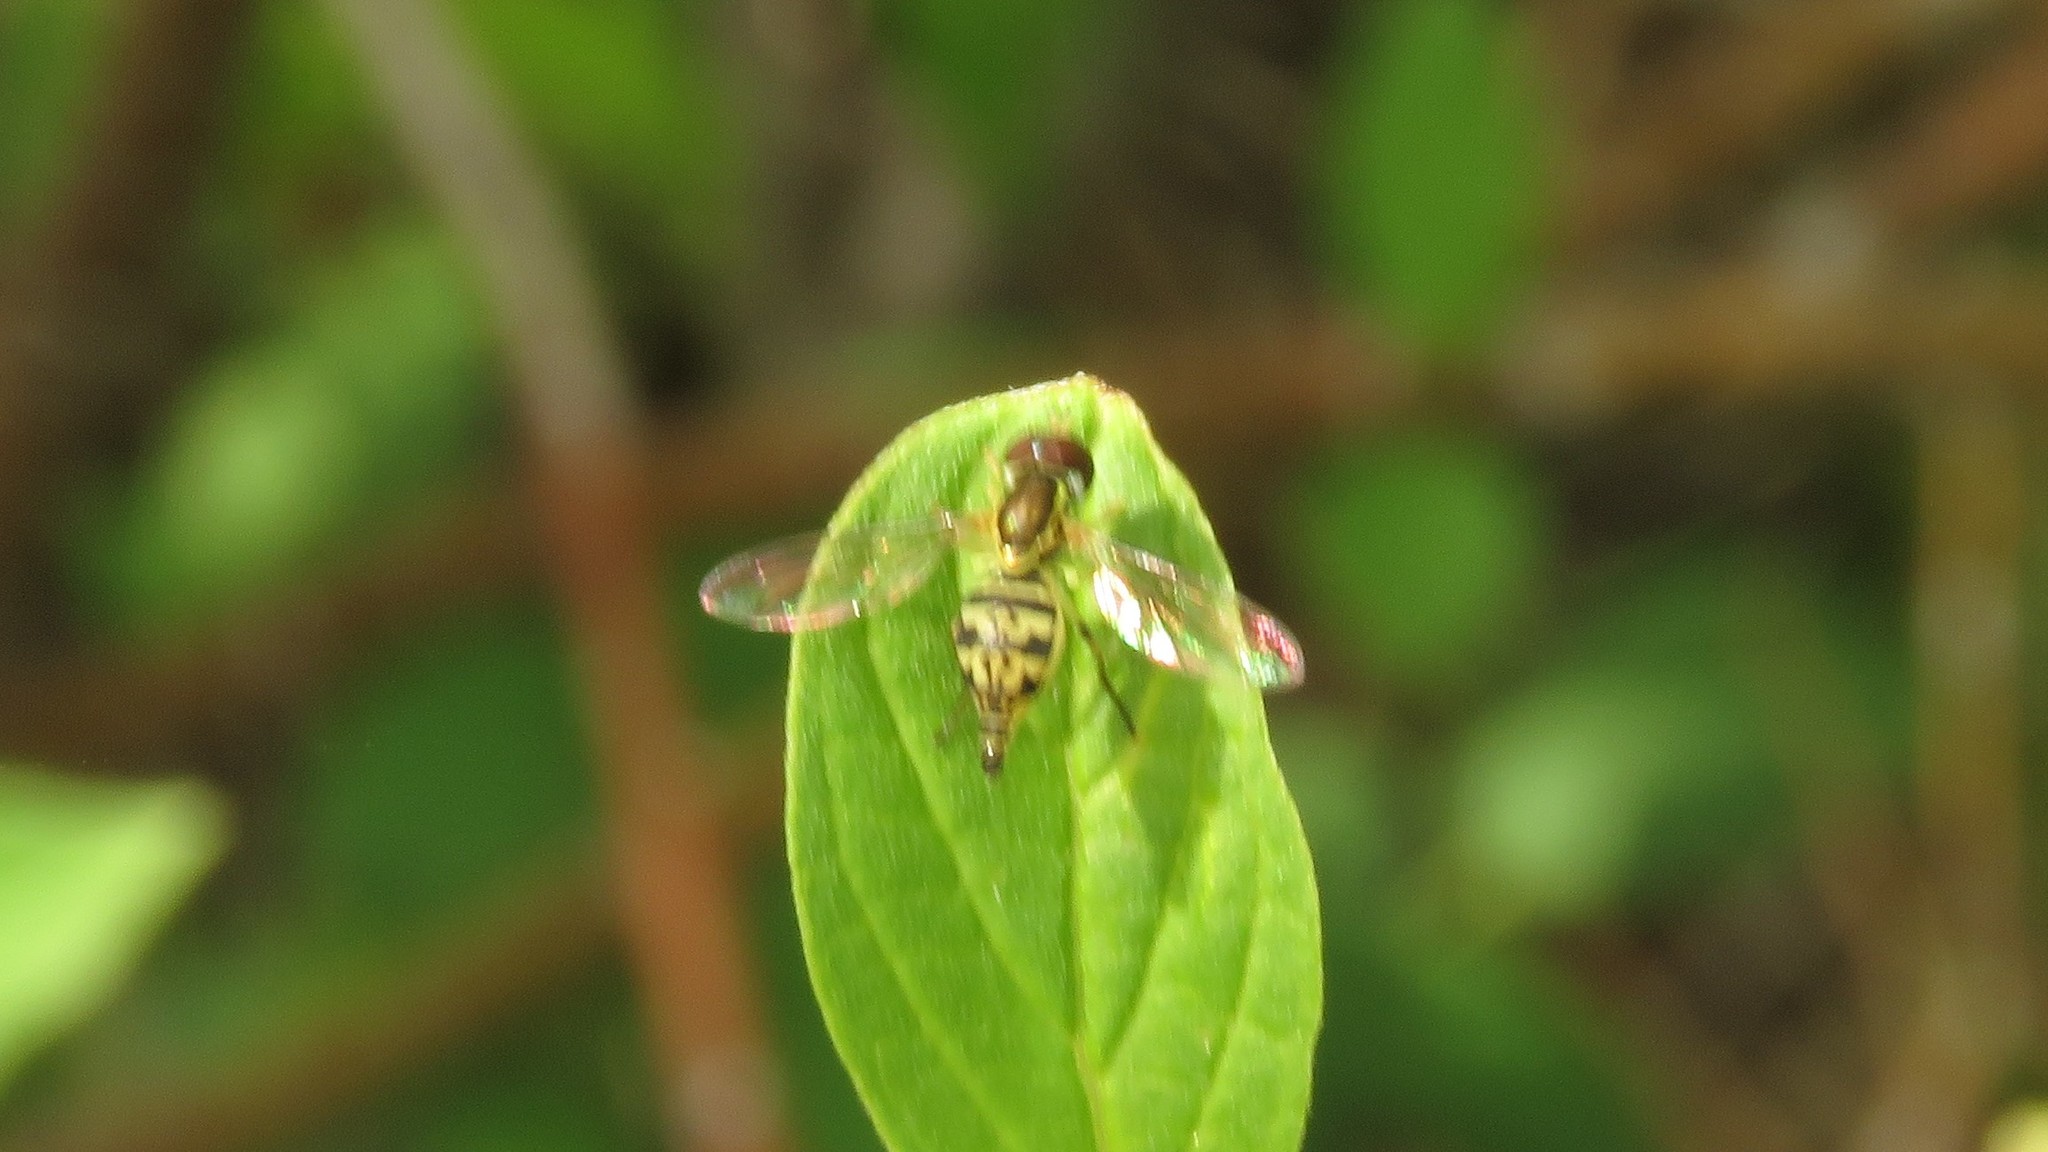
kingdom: Animalia
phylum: Arthropoda
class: Insecta
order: Diptera
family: Syrphidae
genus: Toxomerus
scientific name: Toxomerus geminatus
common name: Eastern calligrapher
